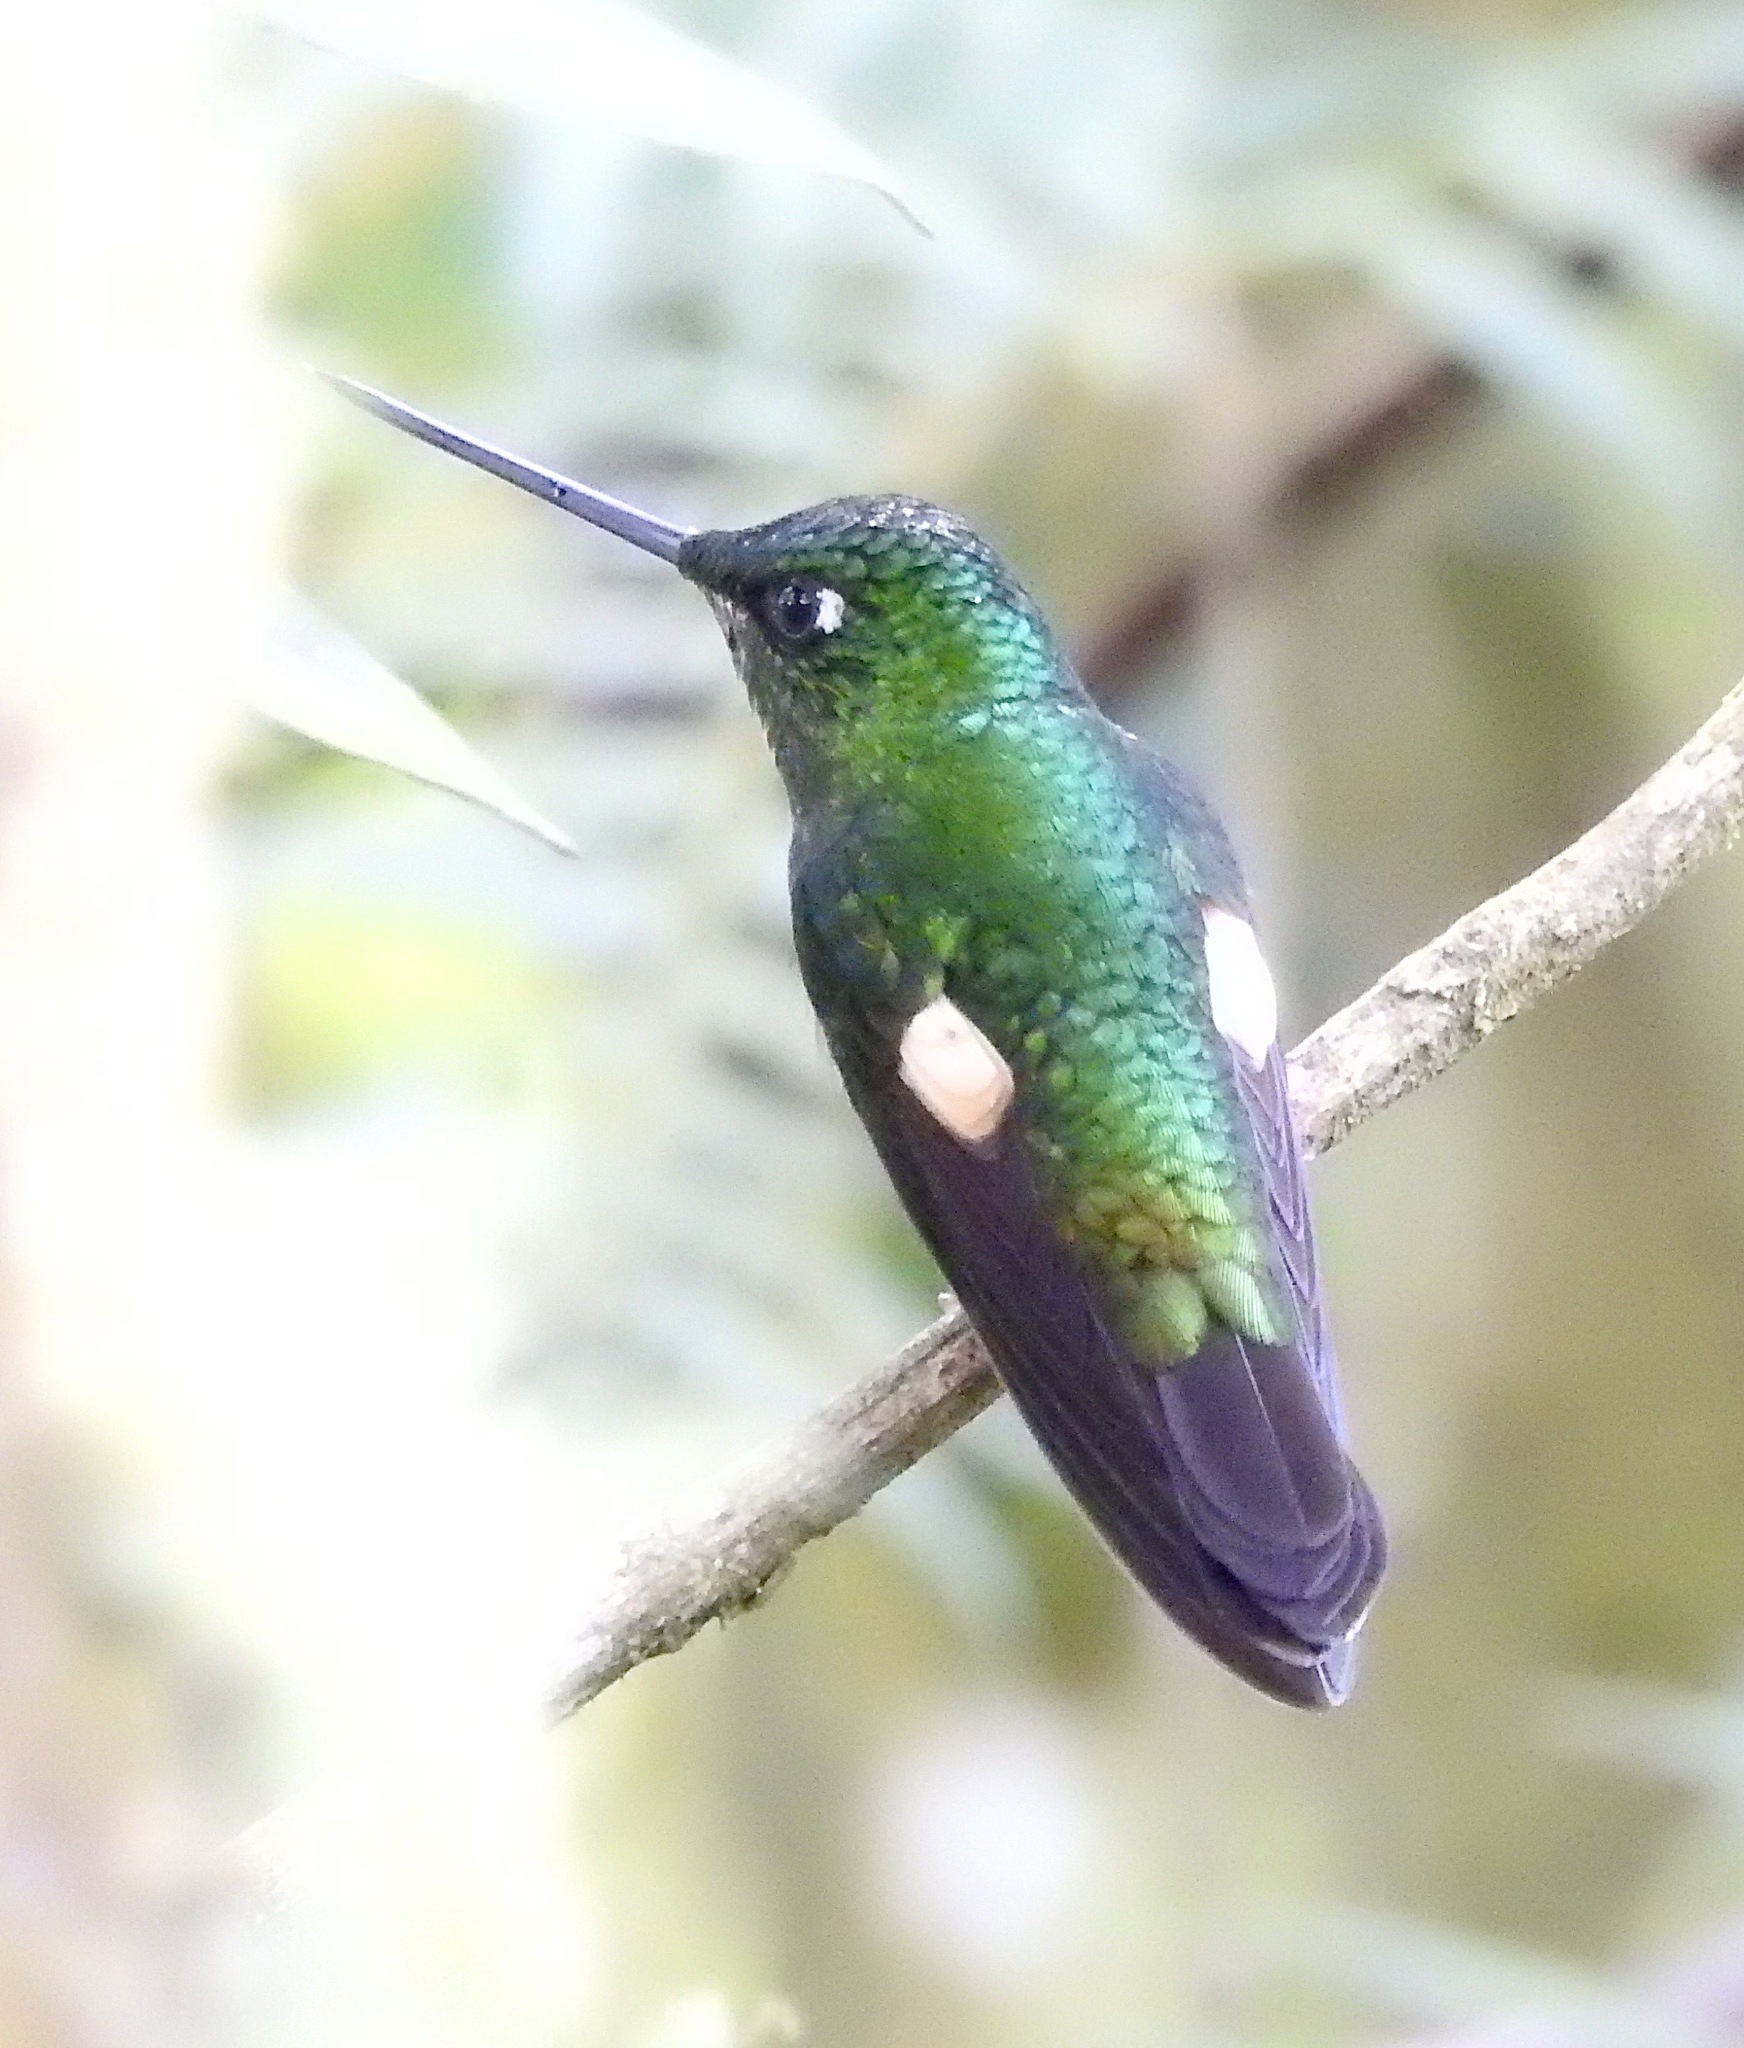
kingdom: Animalia
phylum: Chordata
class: Aves
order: Apodiformes
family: Trochilidae
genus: Coeligena
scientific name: Coeligena lutetiae
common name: Buff-winged starfrontlet
